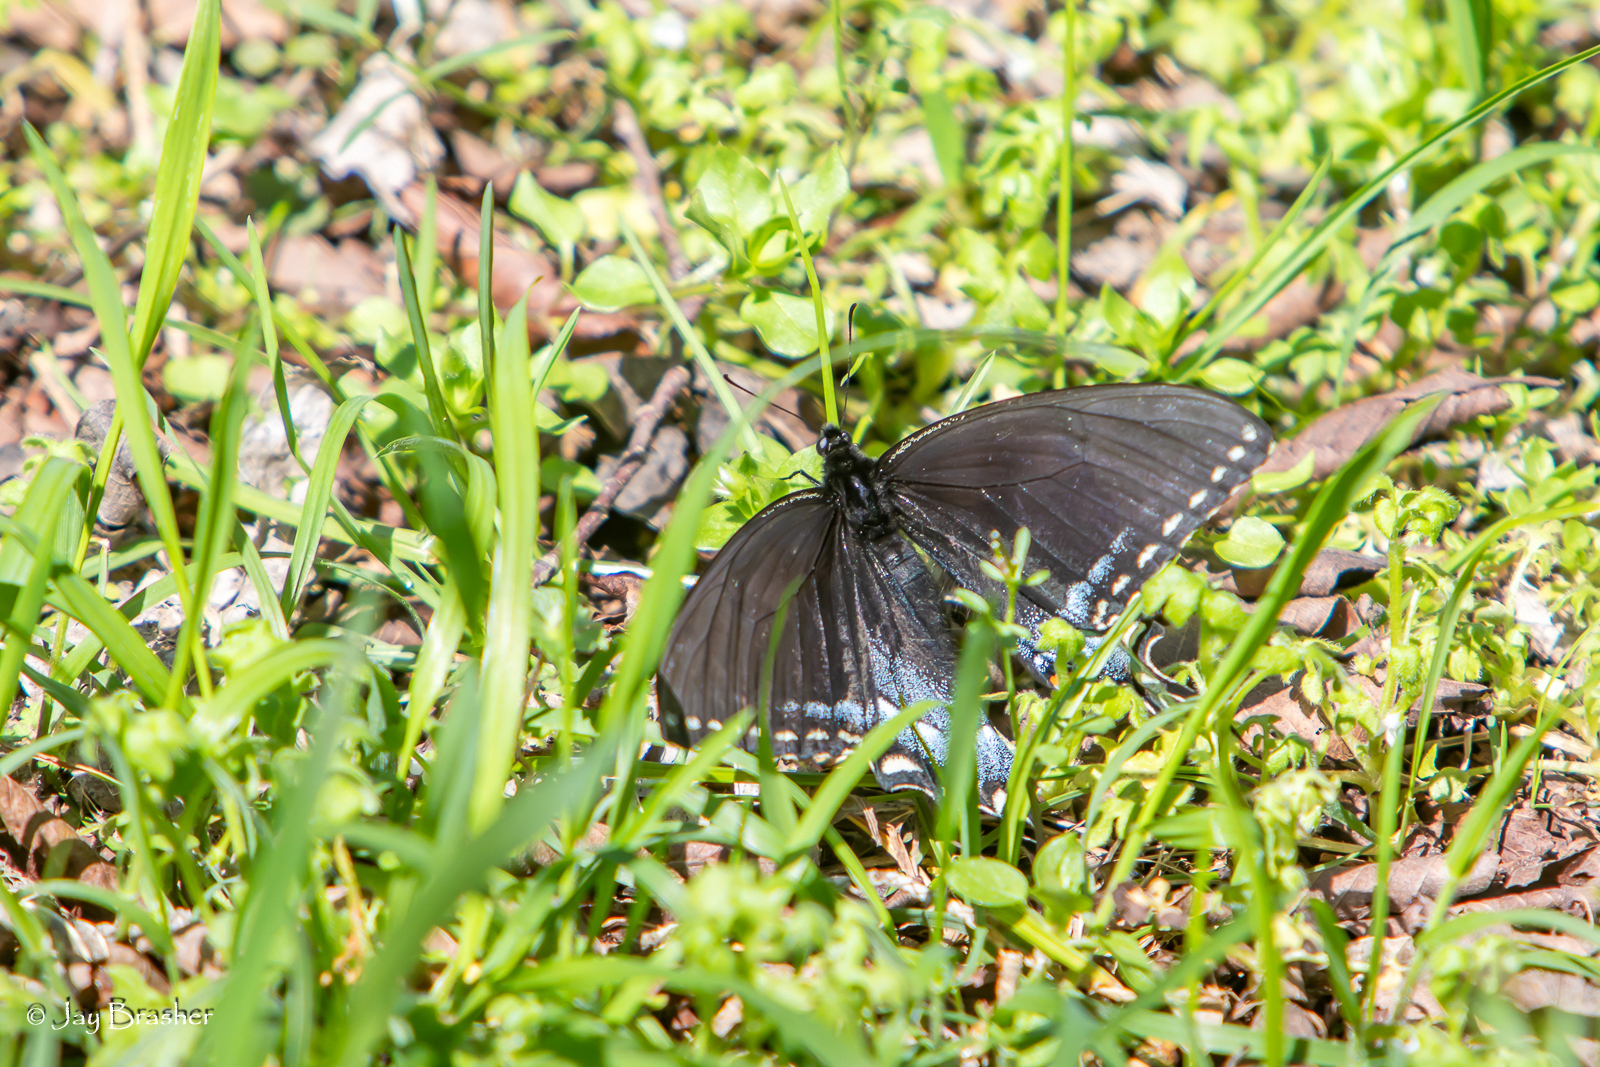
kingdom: Animalia
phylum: Arthropoda
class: Insecta
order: Lepidoptera
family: Papilionidae
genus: Papilio
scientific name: Papilio glaucus
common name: Tiger swallowtail
